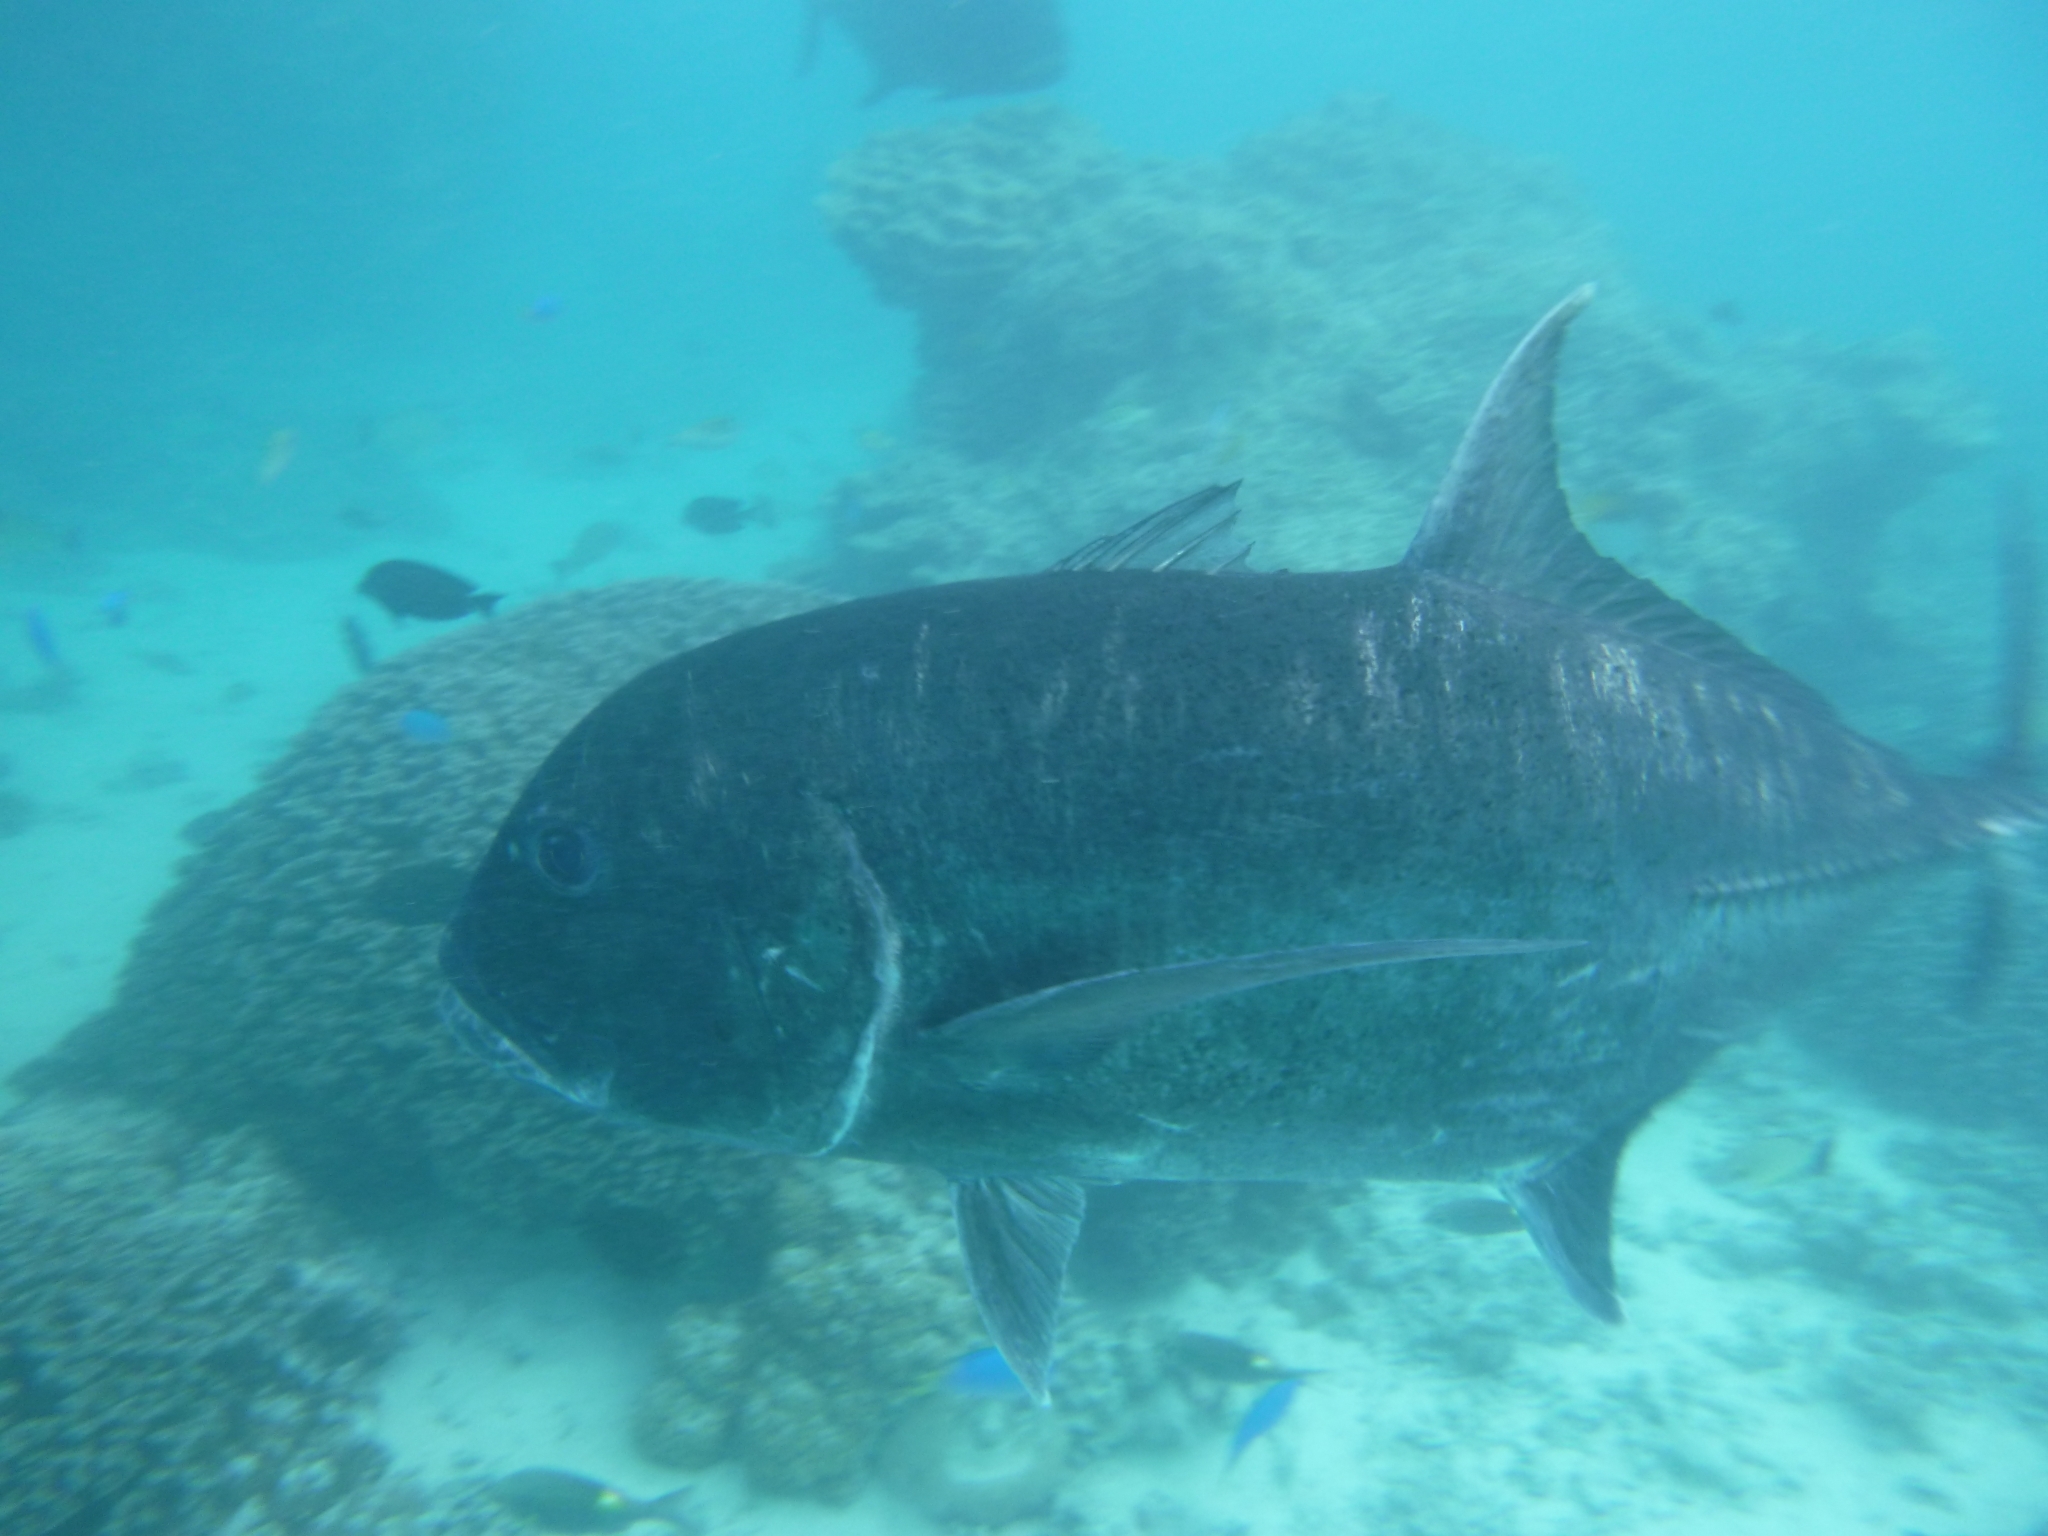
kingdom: Animalia
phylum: Chordata
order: Perciformes
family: Carangidae
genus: Caranx
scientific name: Caranx ignobilis
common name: Giant trevally
